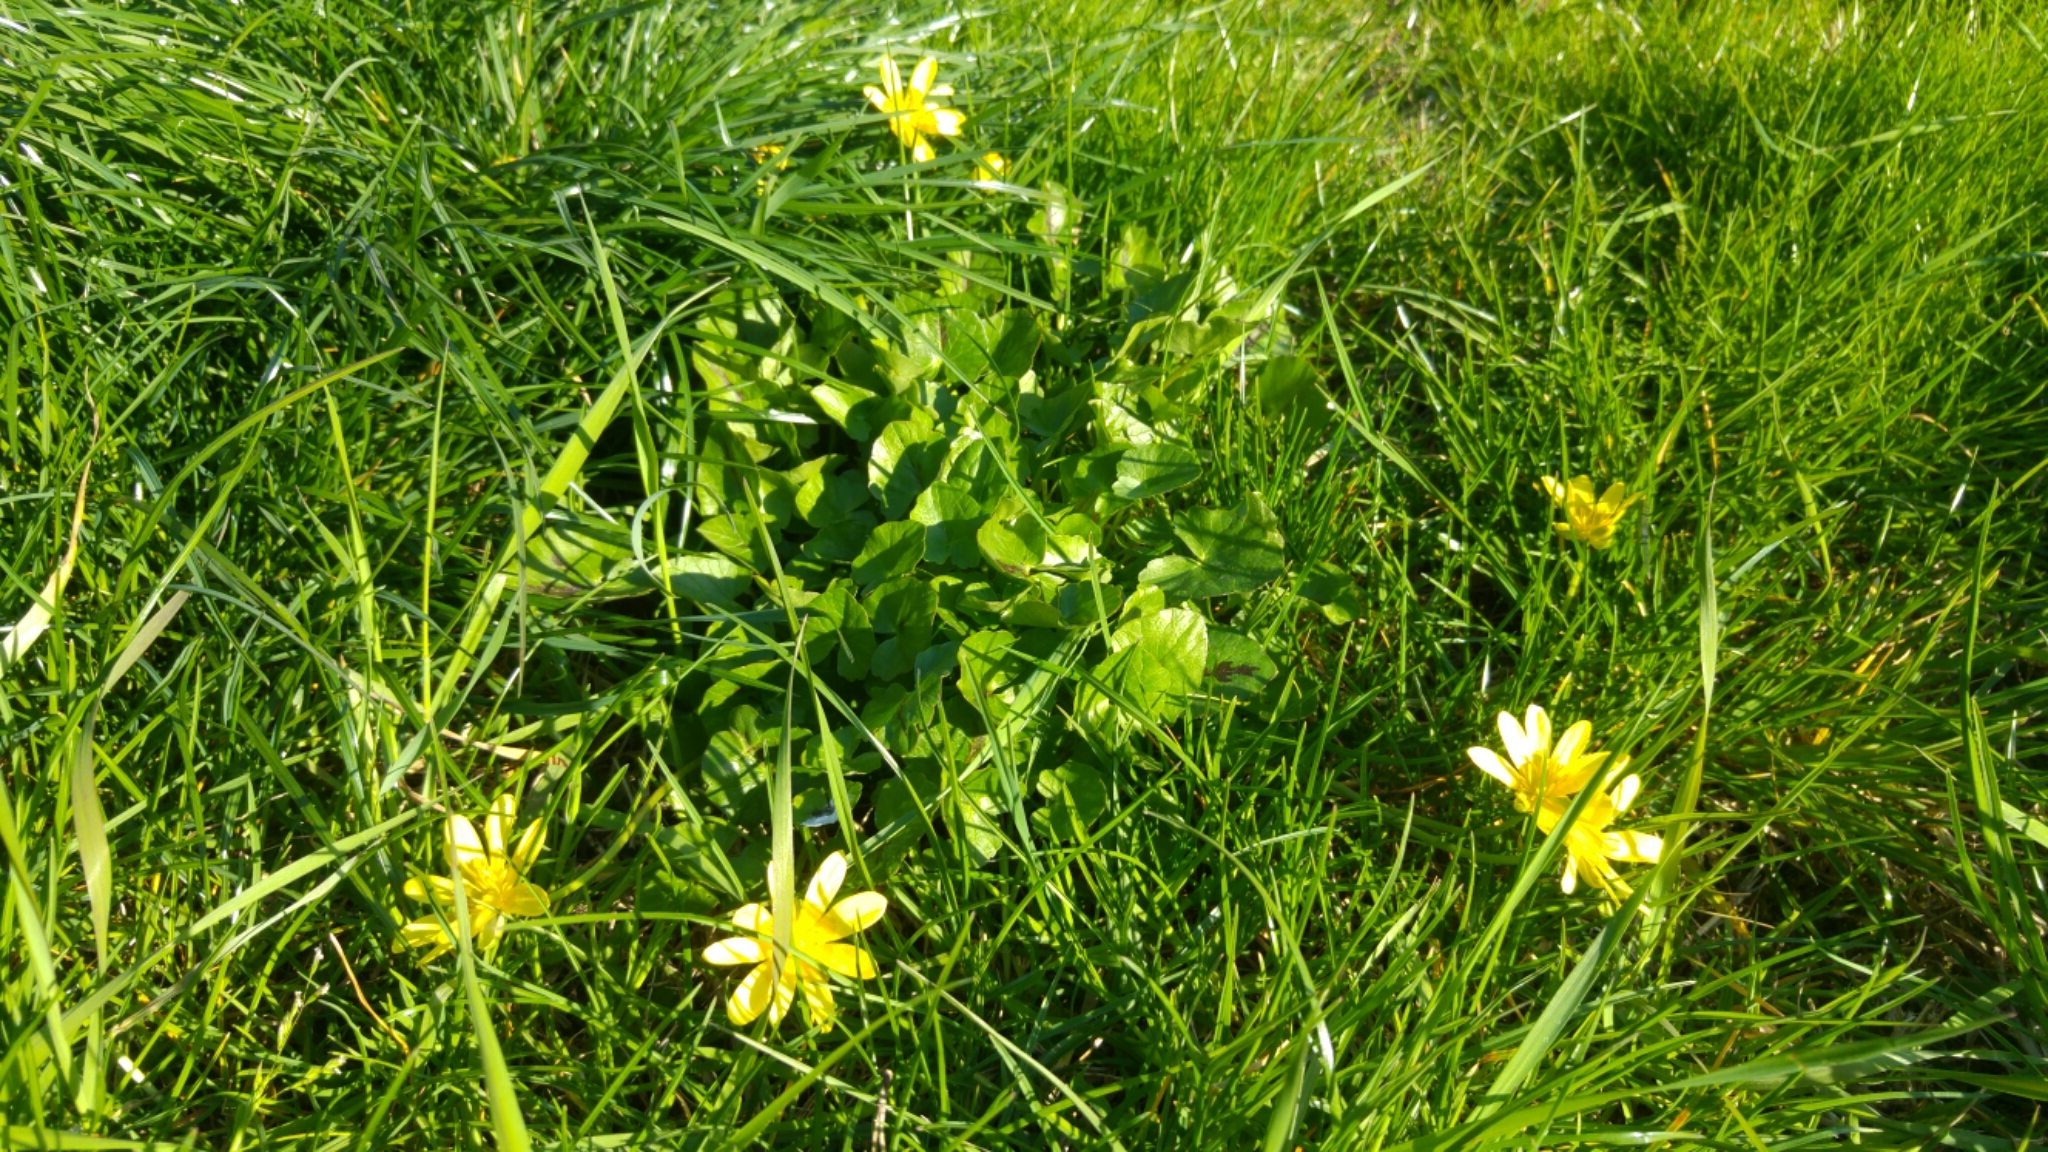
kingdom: Plantae
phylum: Tracheophyta
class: Magnoliopsida
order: Ranunculales
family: Ranunculaceae
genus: Ficaria
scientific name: Ficaria verna
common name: Lesser celandine
